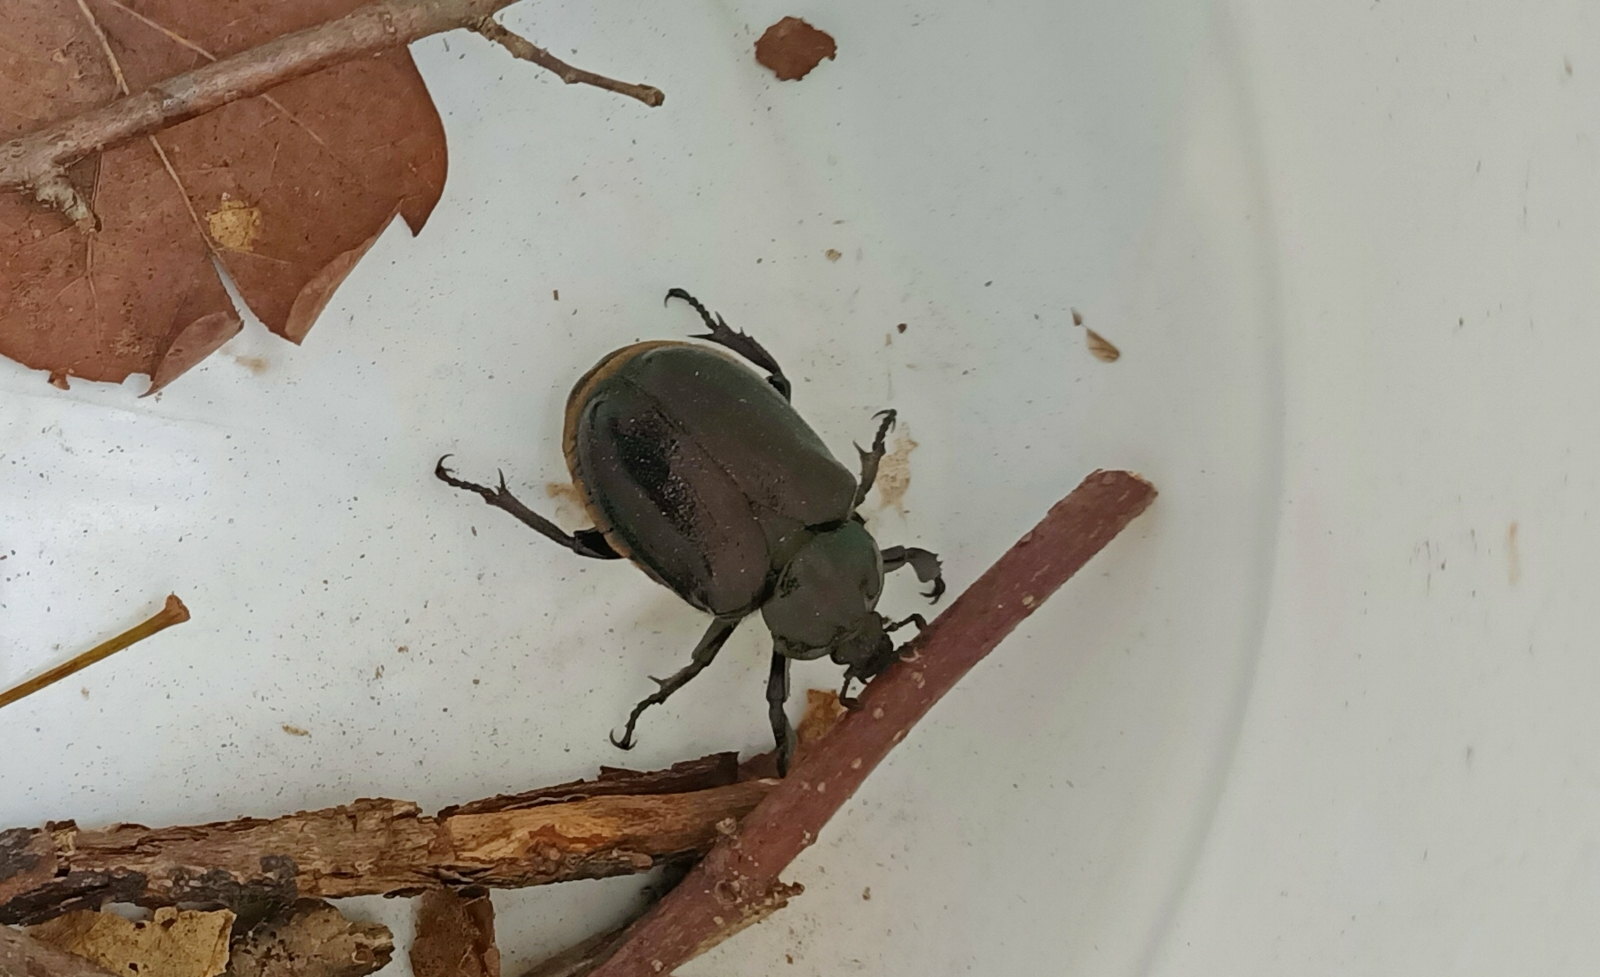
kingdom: Animalia
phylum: Arthropoda
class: Insecta
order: Coleoptera
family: Scarabaeidae
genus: Osmoderma
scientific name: Osmoderma barnabita
